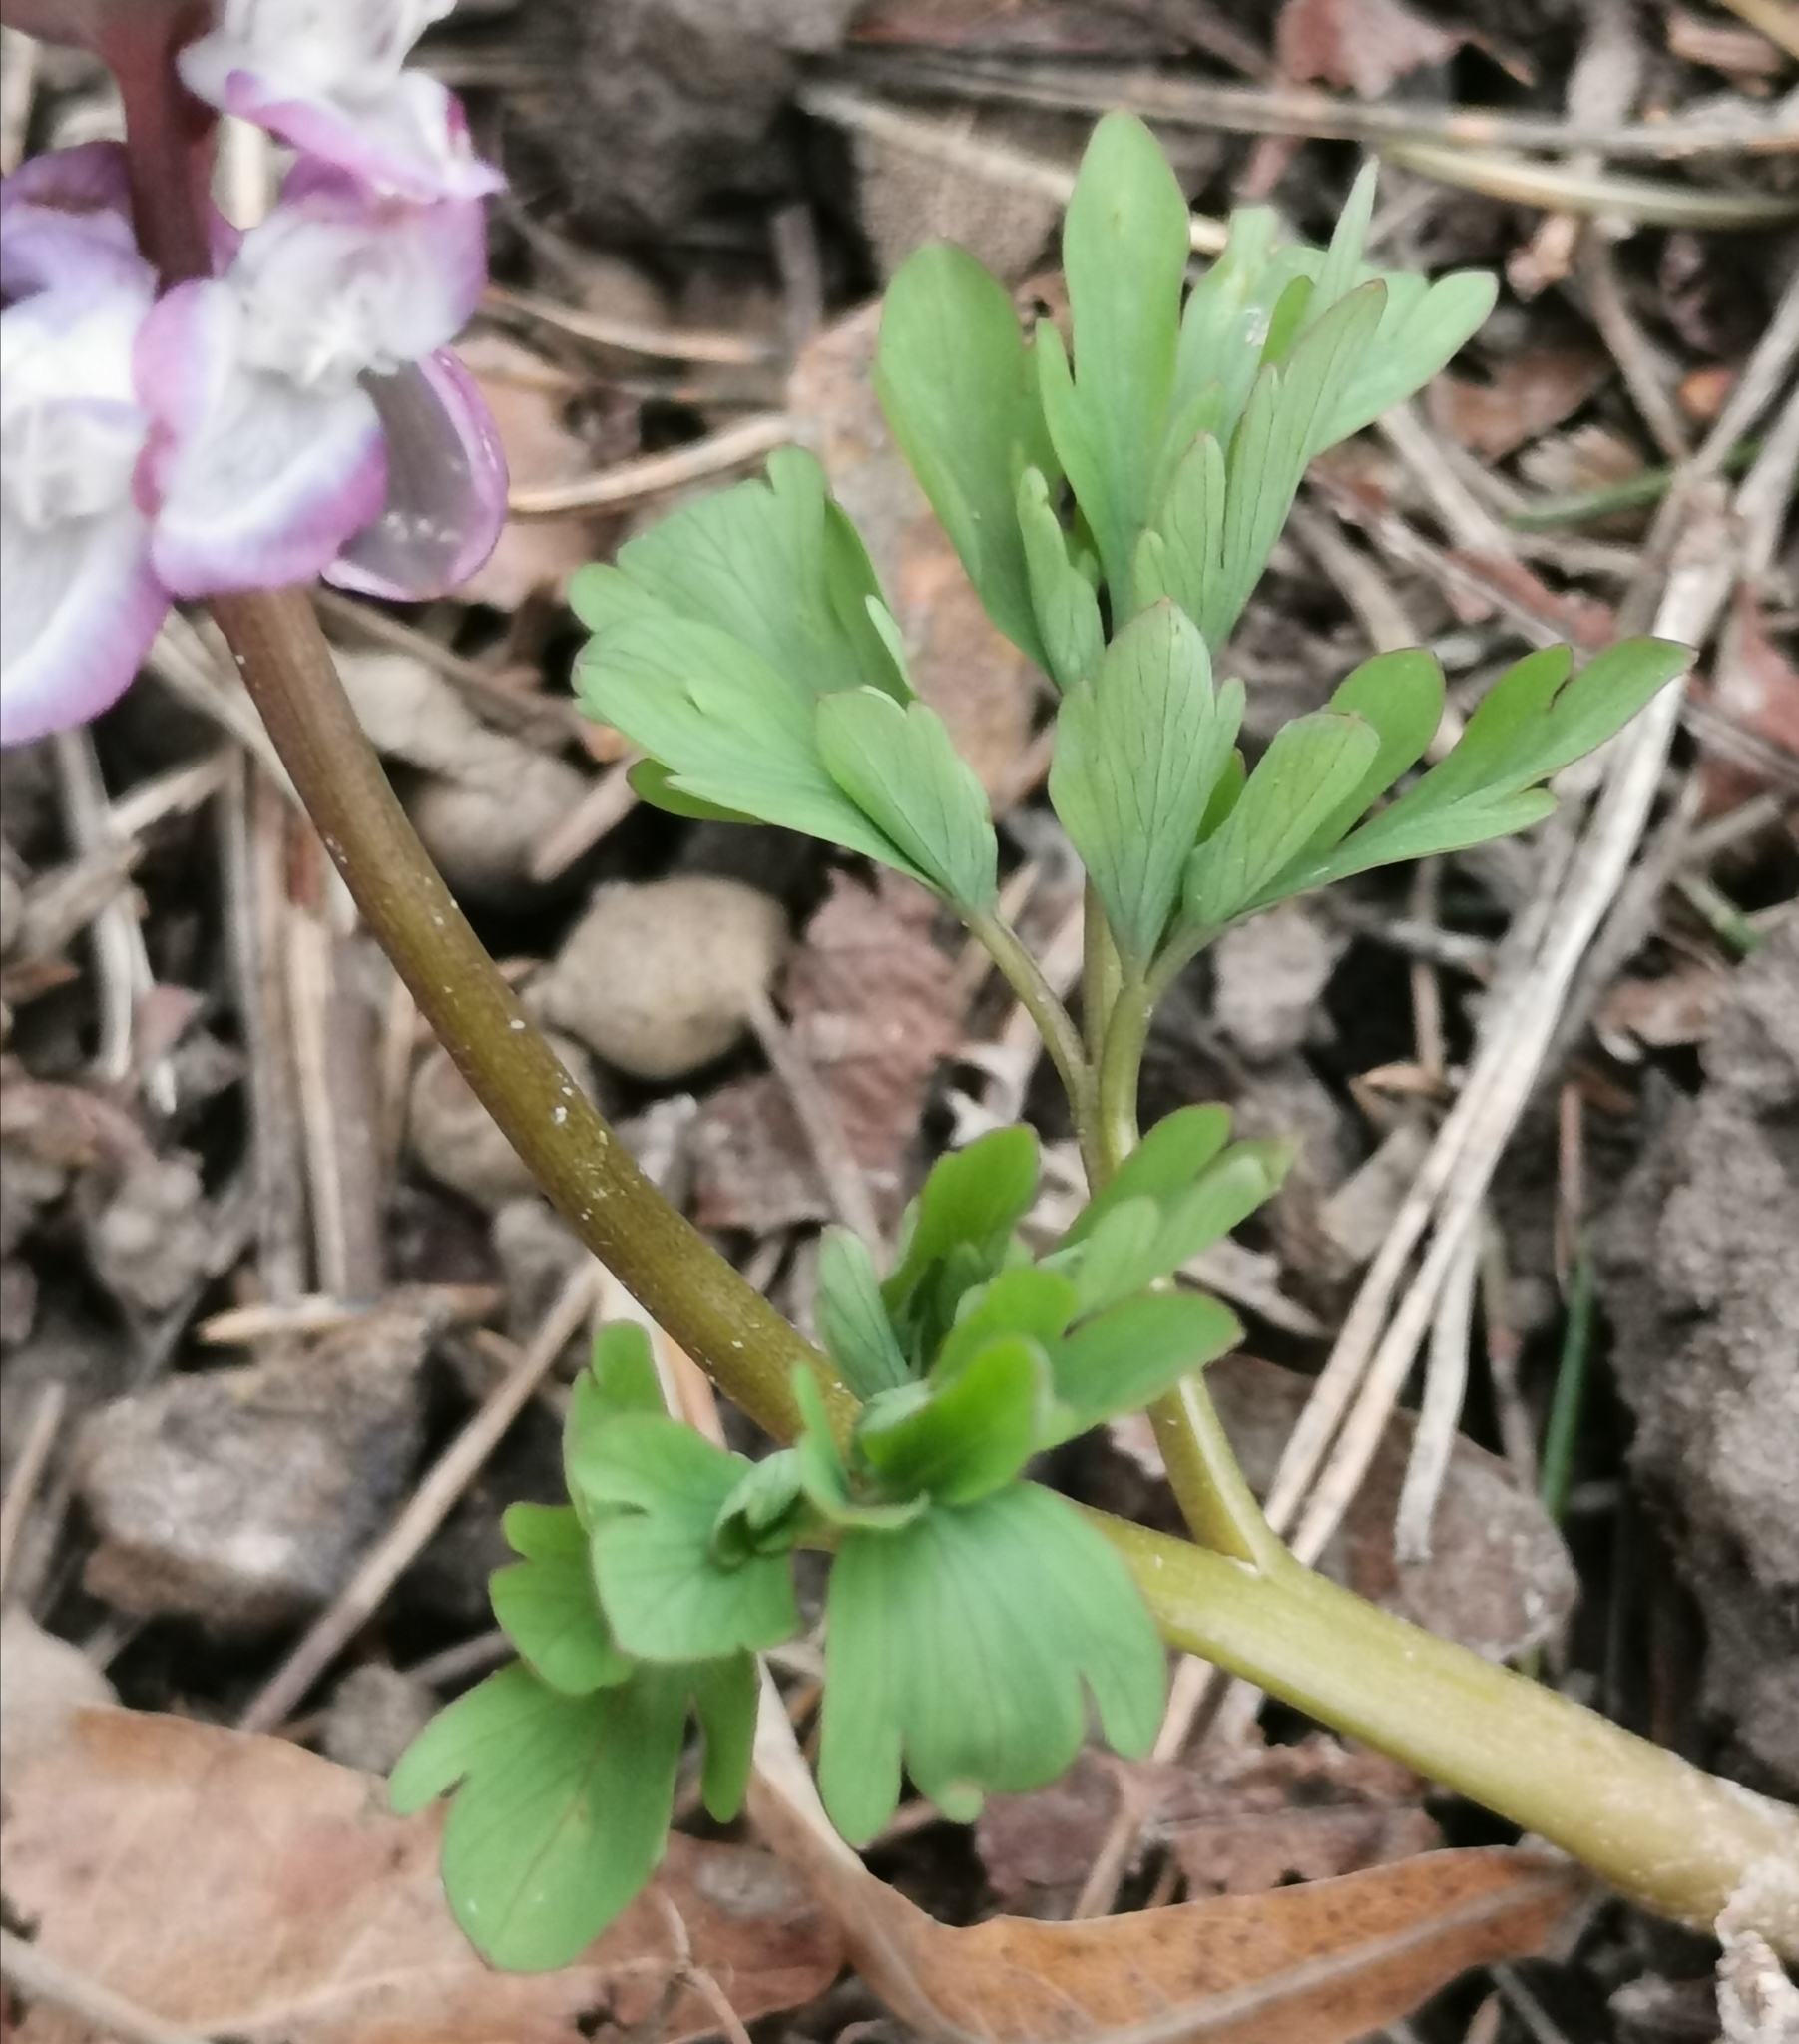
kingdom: Plantae
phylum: Tracheophyta
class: Magnoliopsida
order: Ranunculales
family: Papaveraceae
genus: Corydalis
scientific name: Corydalis cava
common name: Hollowroot
